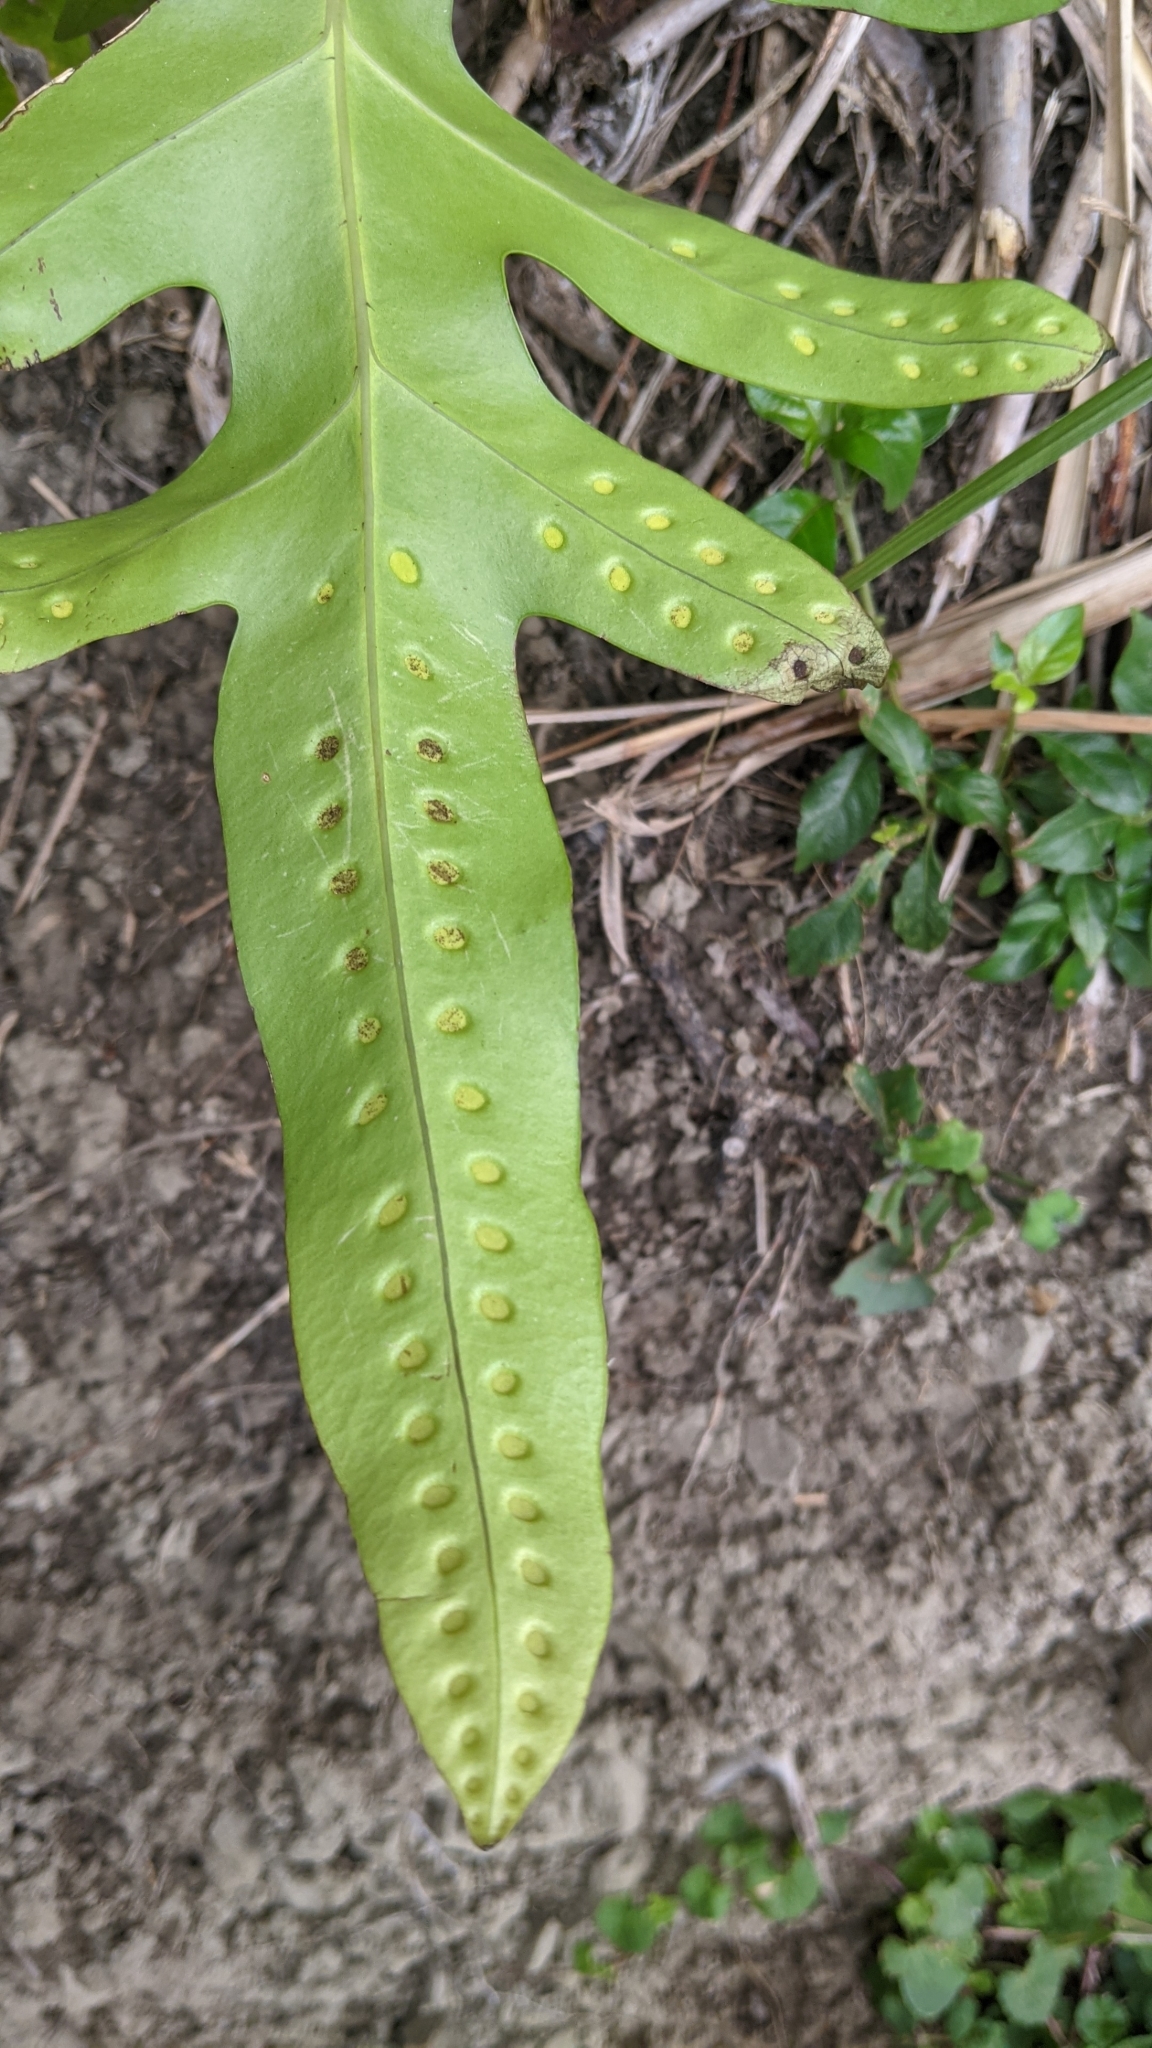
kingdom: Plantae
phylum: Tracheophyta
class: Polypodiopsida
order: Polypodiales
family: Polypodiaceae
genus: Microsorum
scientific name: Microsorum scolopendria
